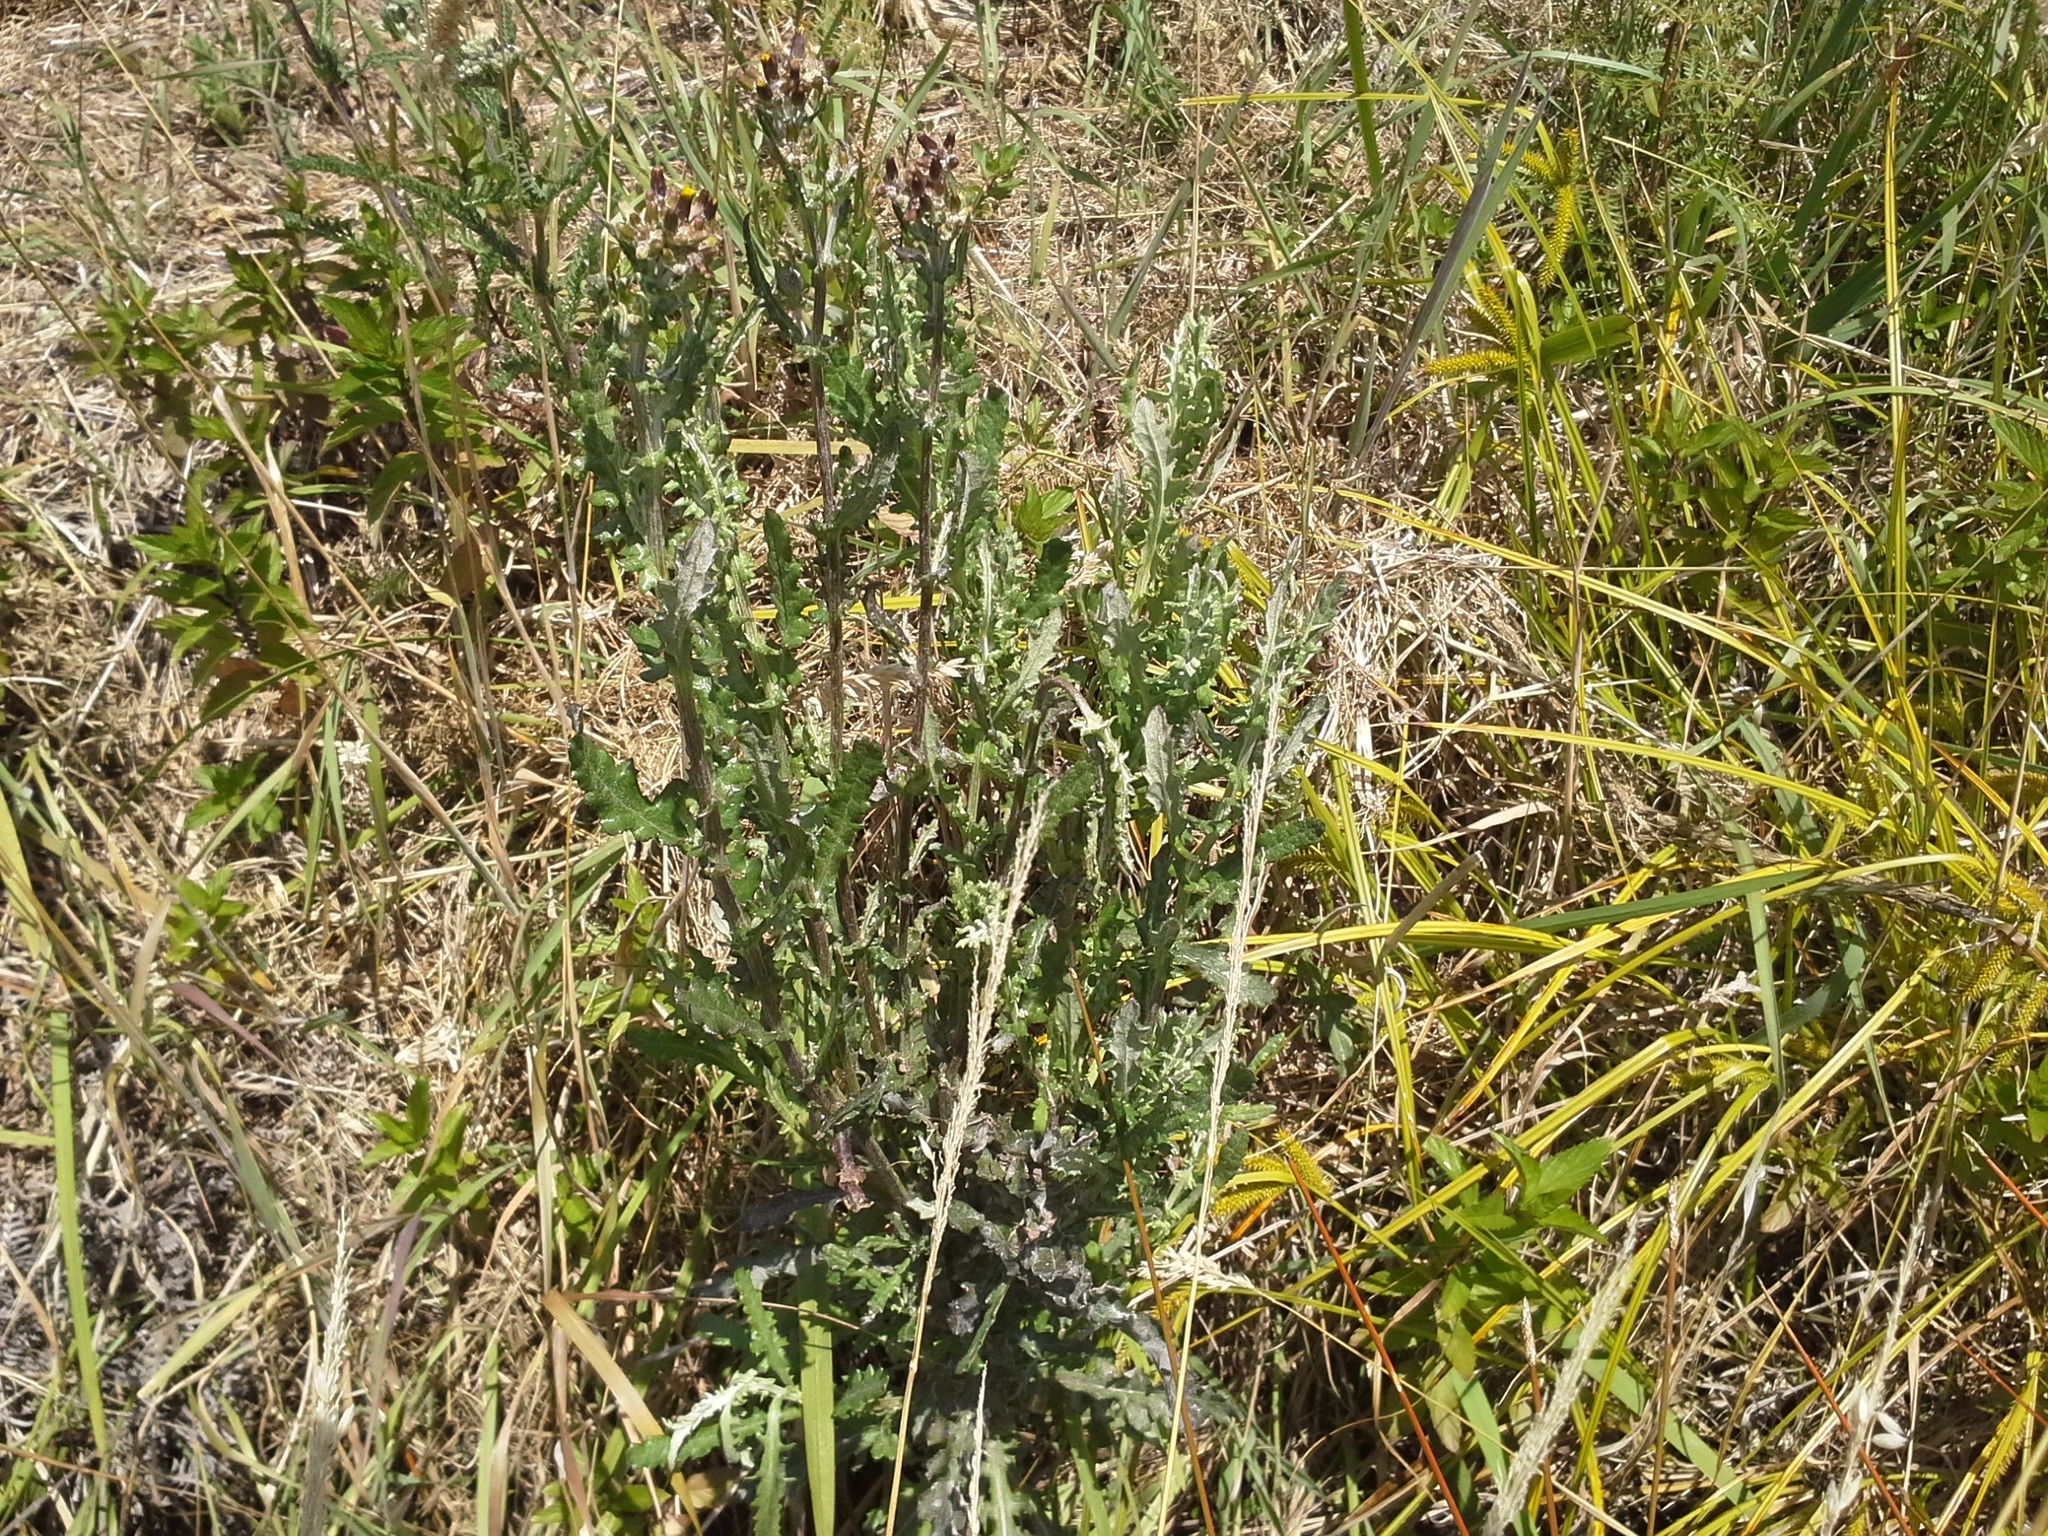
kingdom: Plantae
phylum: Tracheophyta
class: Magnoliopsida
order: Asterales
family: Asteraceae
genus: Senecio
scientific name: Senecio glomeratus
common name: Cutleaf burnweed
